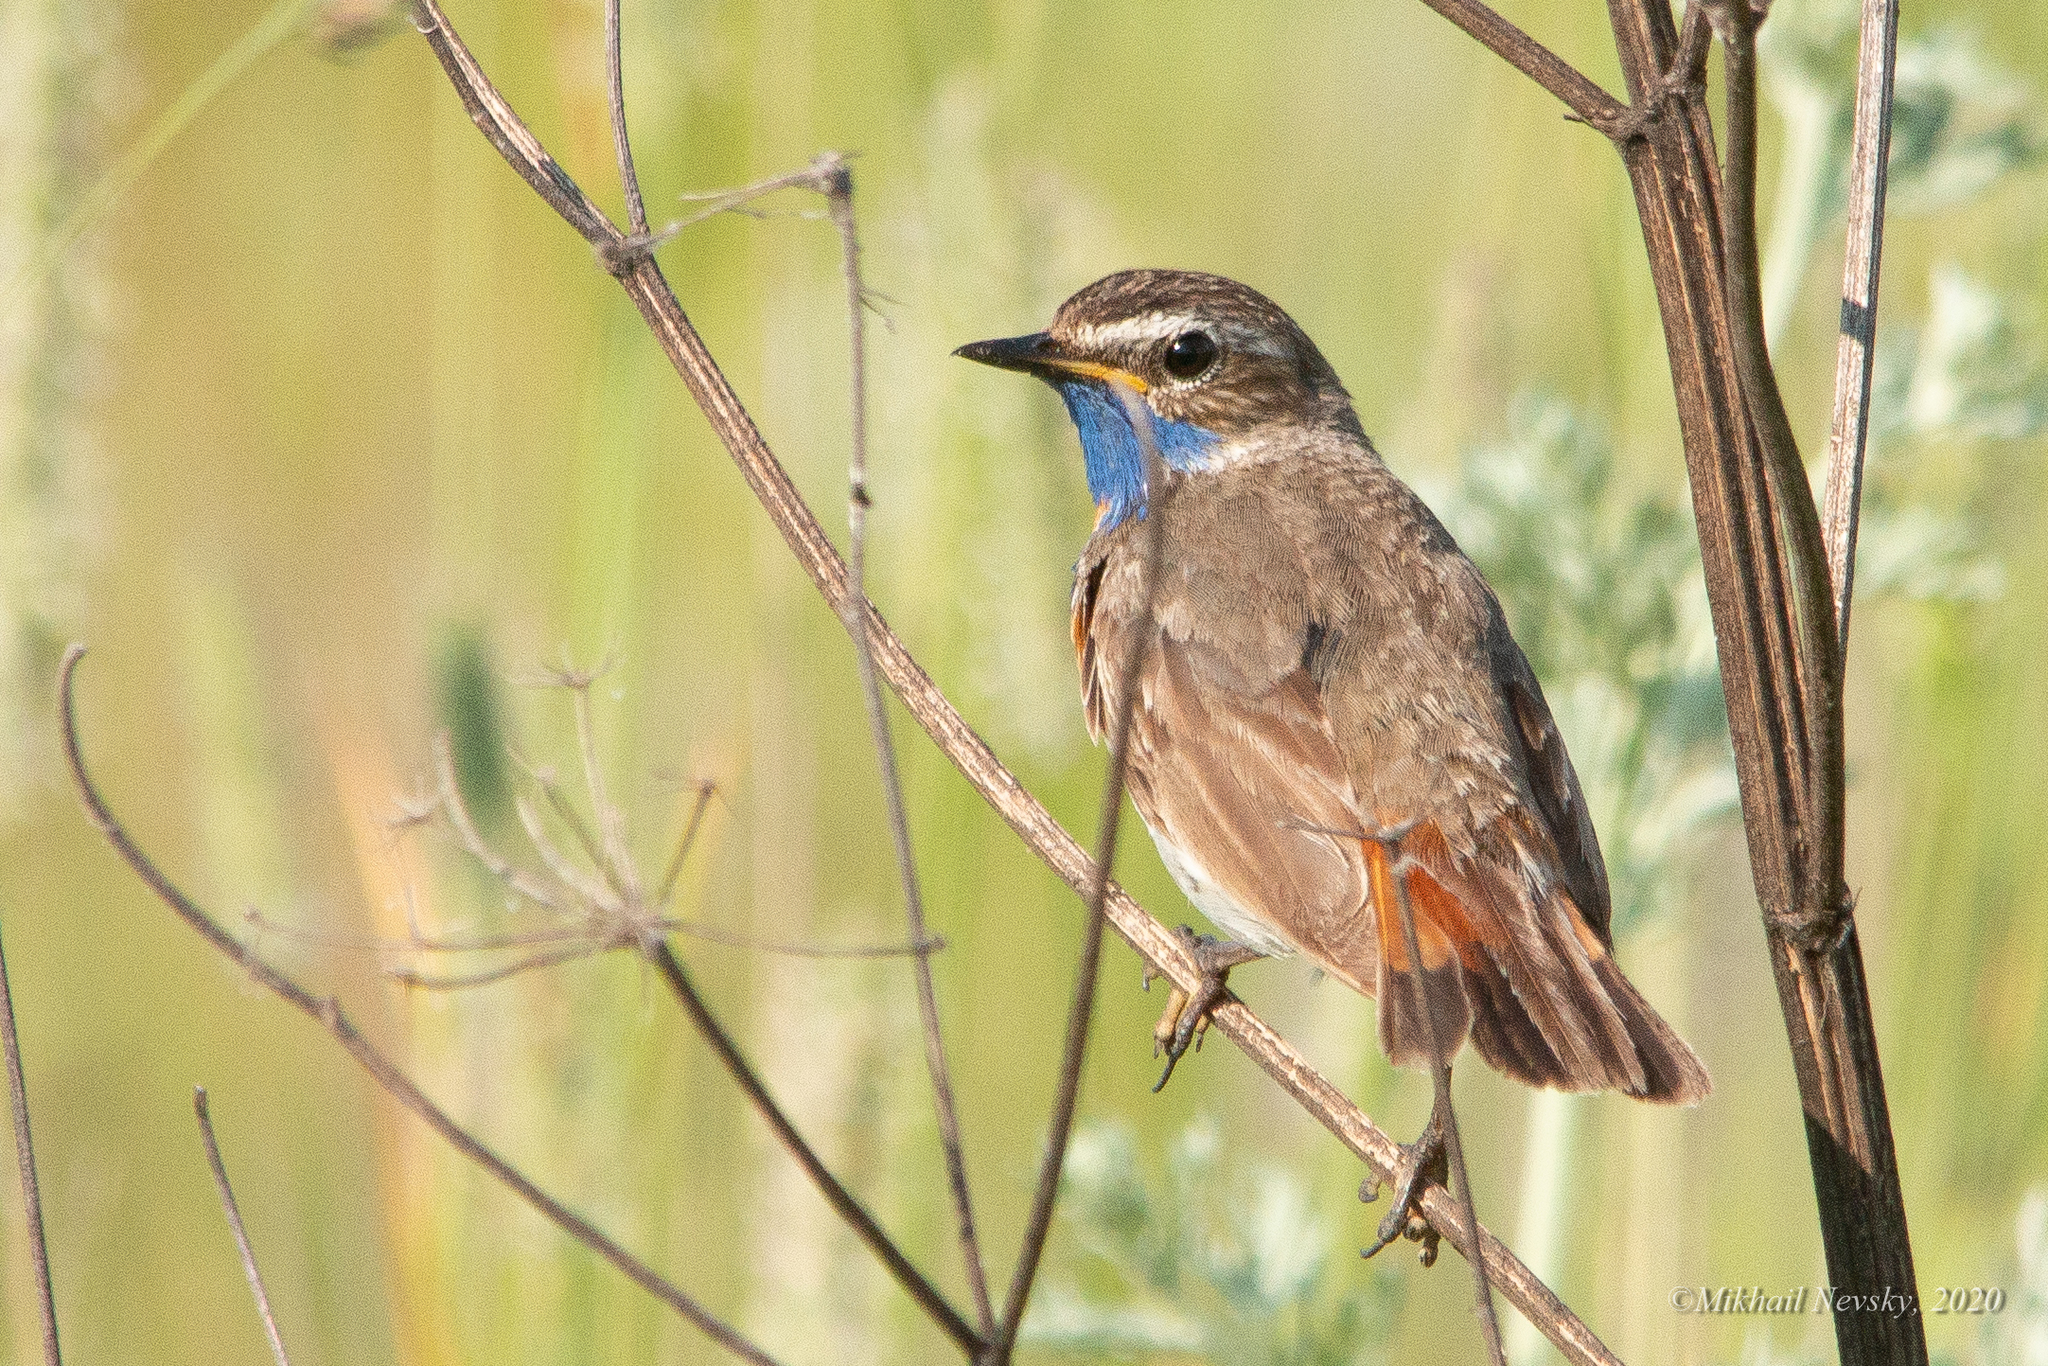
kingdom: Animalia
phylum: Chordata
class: Aves
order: Passeriformes
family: Muscicapidae
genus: Luscinia
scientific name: Luscinia svecica
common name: Bluethroat
